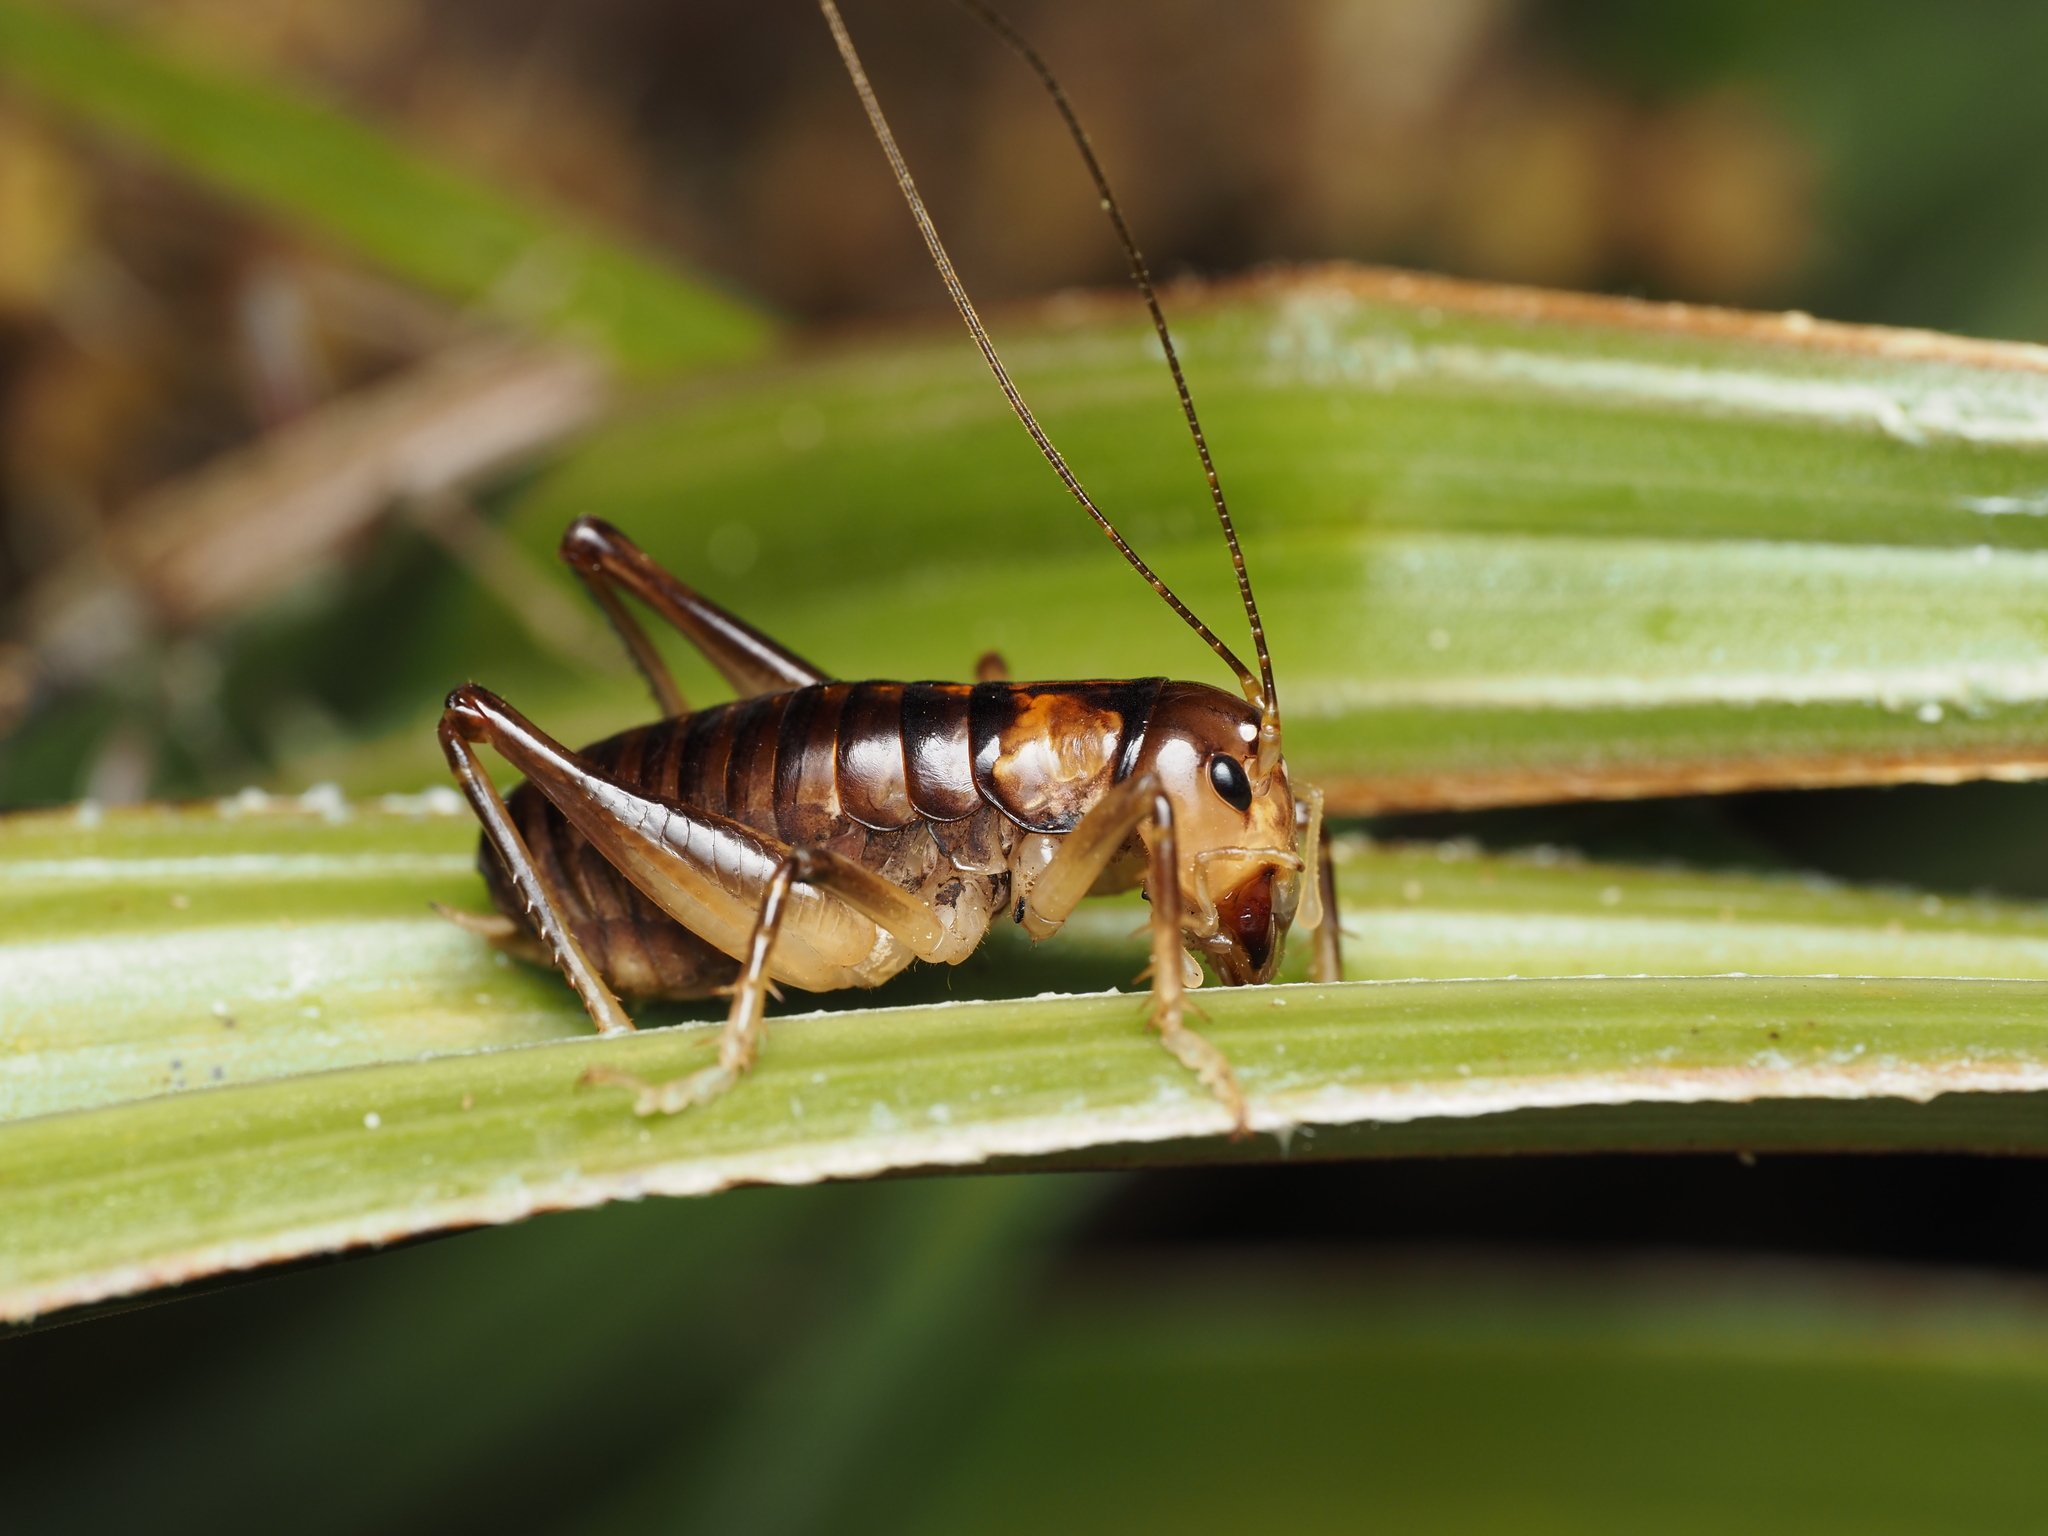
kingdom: Animalia
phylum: Arthropoda
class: Insecta
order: Orthoptera
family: Anostostomatidae
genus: Hemiandrus
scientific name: Hemiandrus pallitarsis
